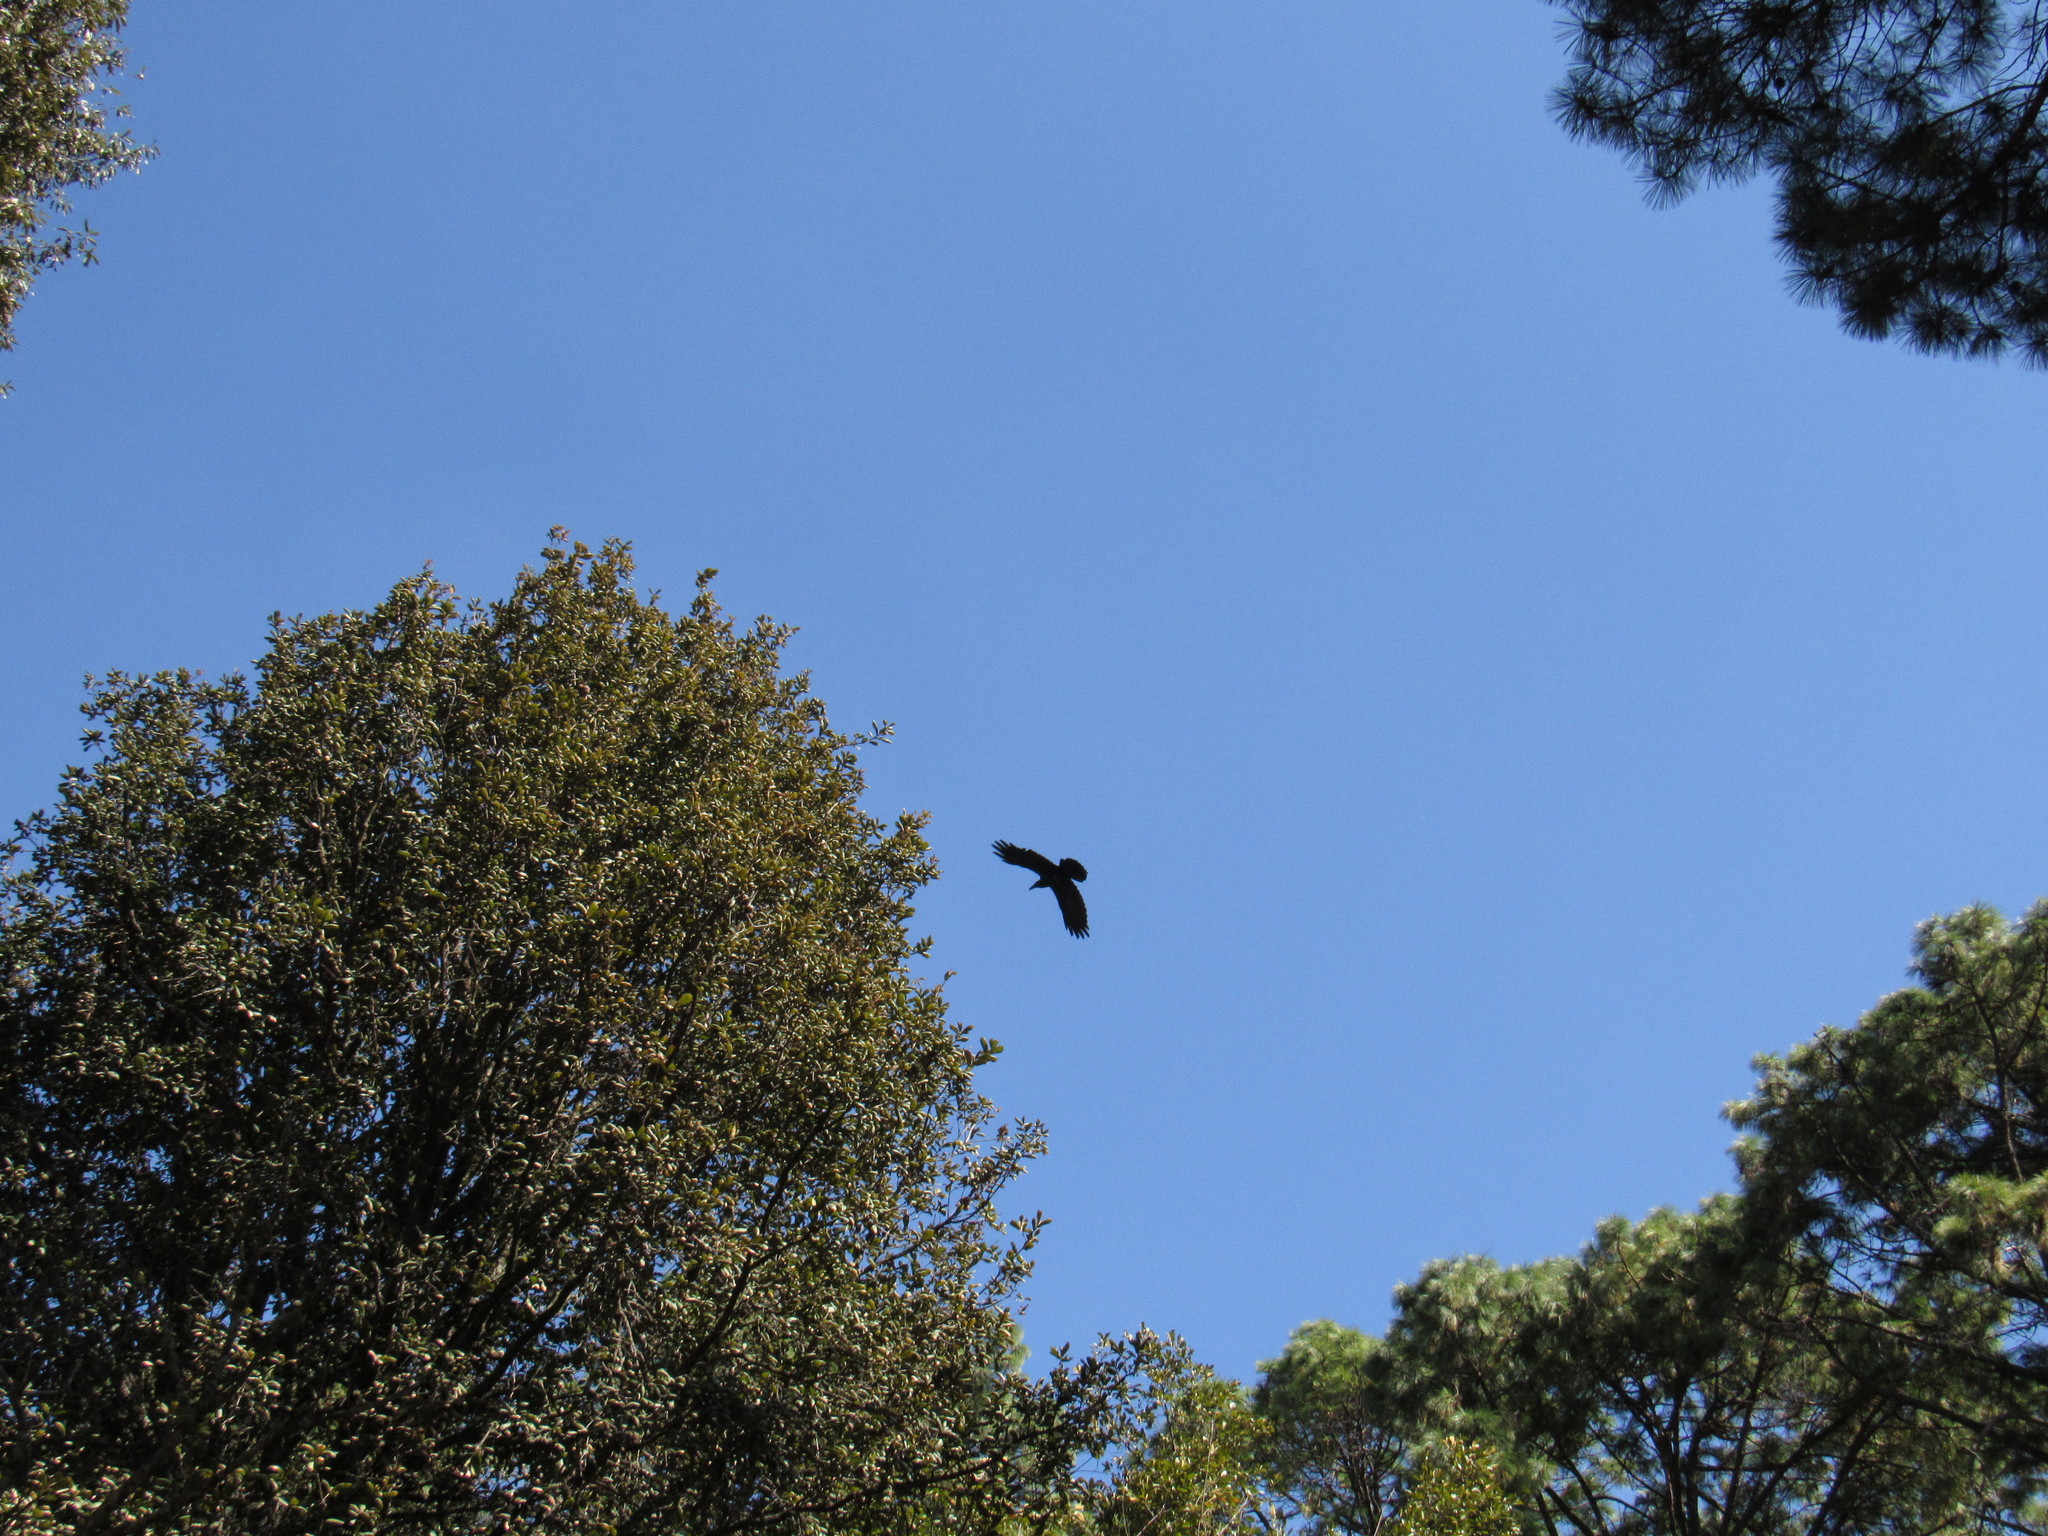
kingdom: Animalia
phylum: Chordata
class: Aves
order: Passeriformes
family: Corvidae
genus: Corvus
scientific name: Corvus corax
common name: Common raven
